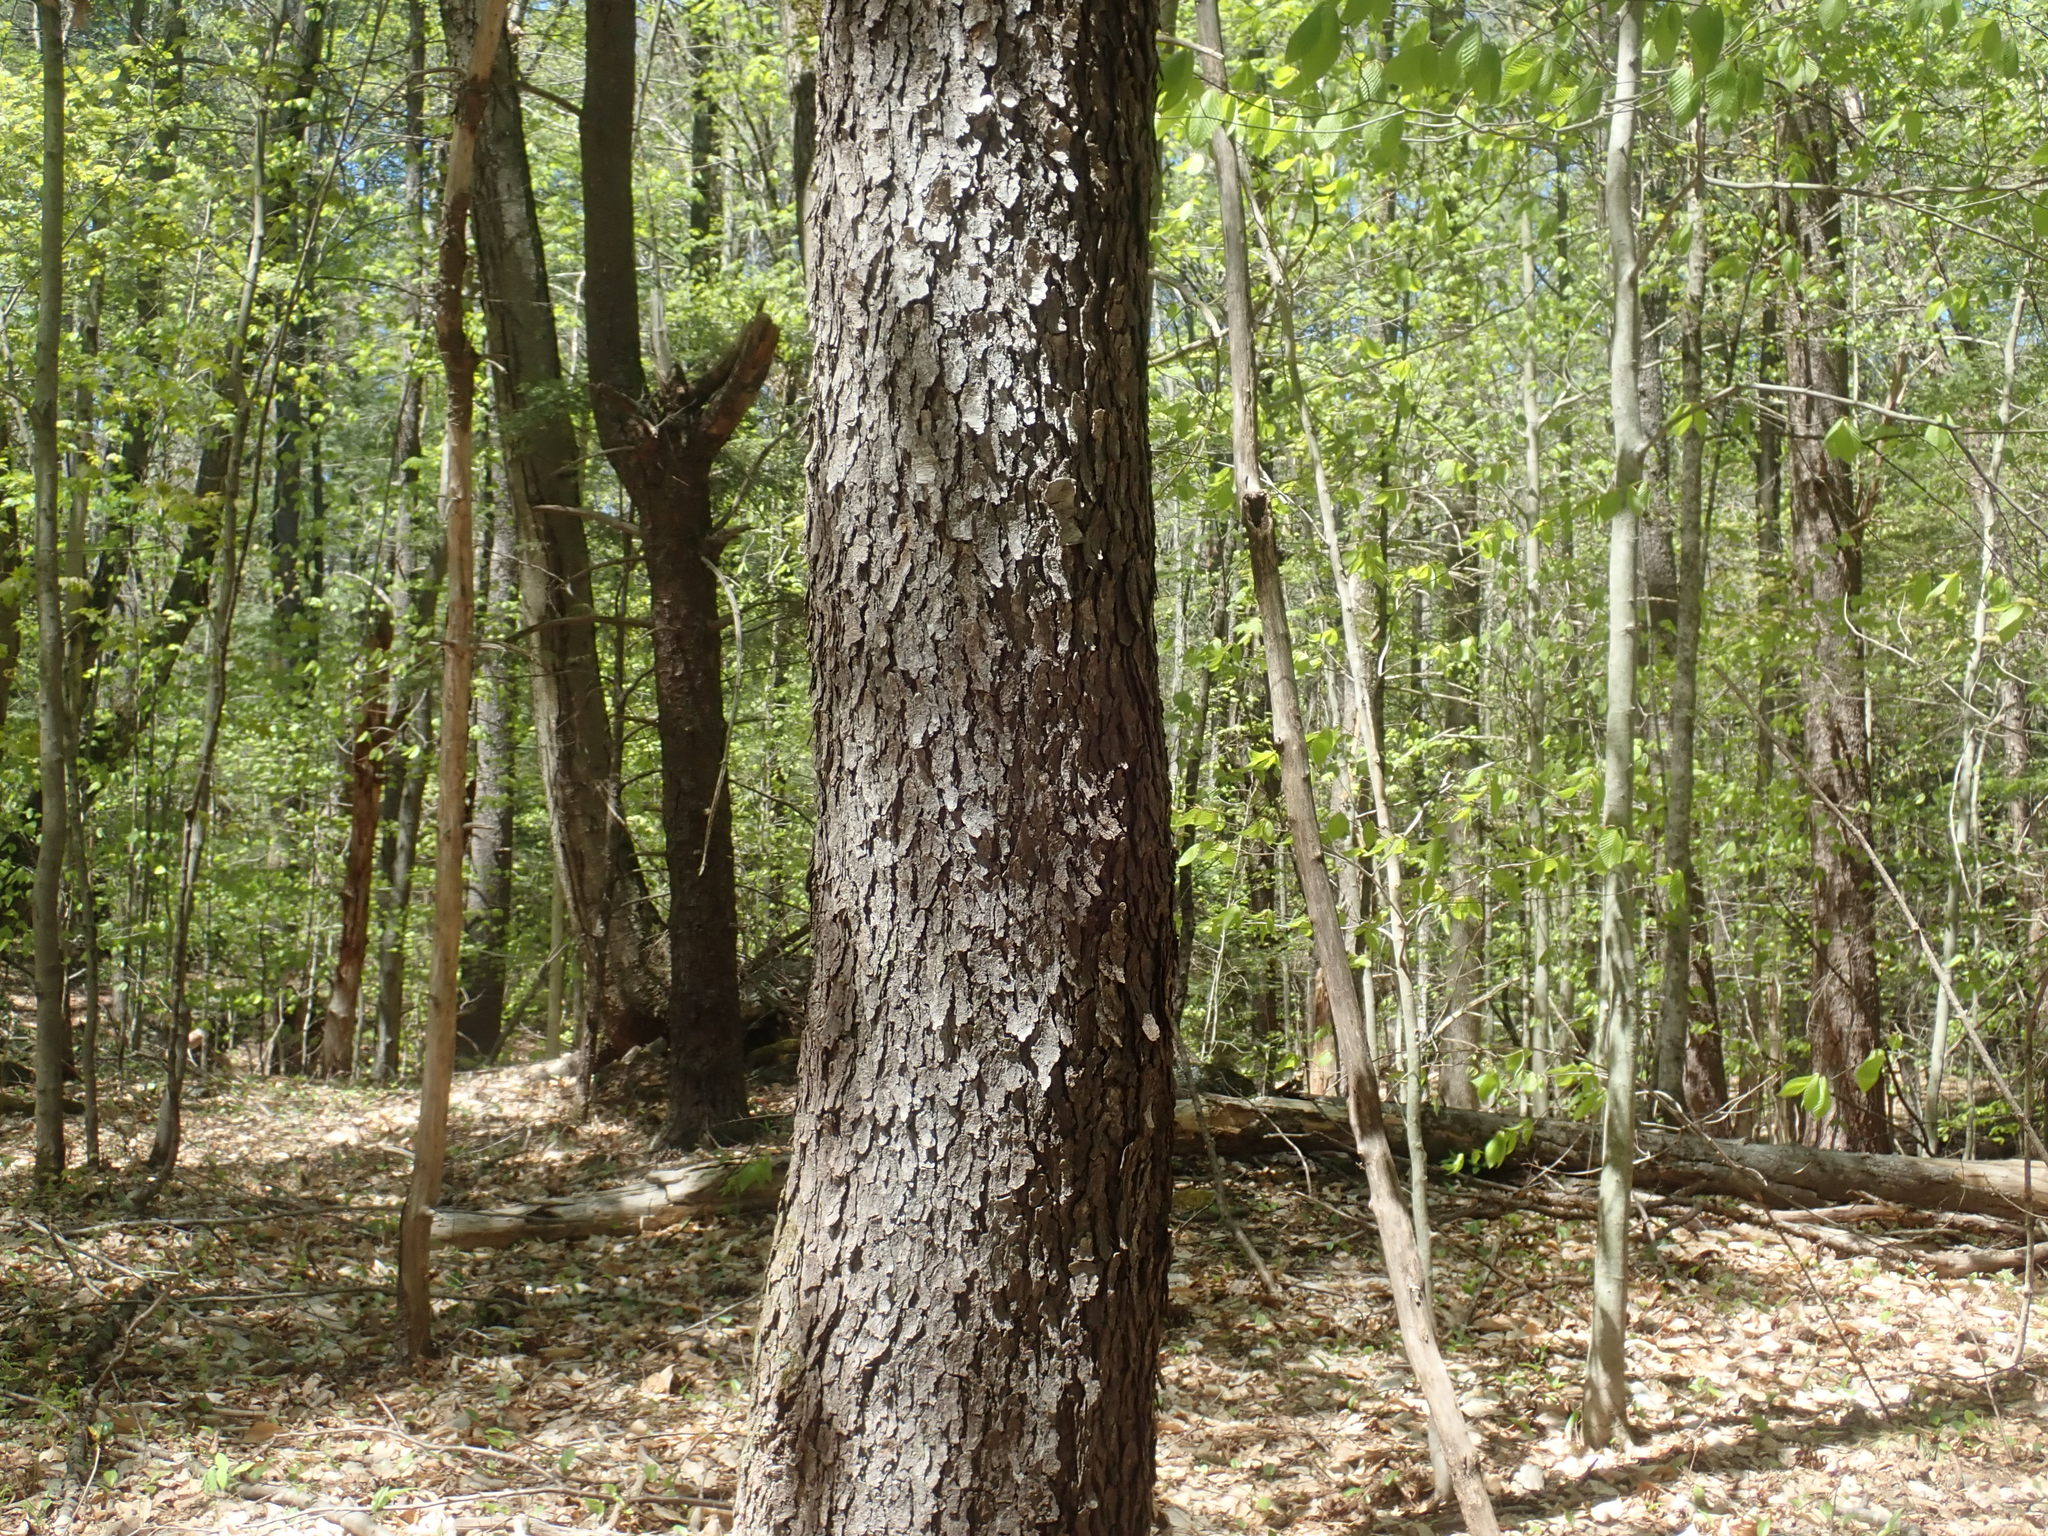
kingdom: Plantae
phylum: Tracheophyta
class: Magnoliopsida
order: Rosales
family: Rosaceae
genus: Prunus
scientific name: Prunus serotina
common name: Black cherry
